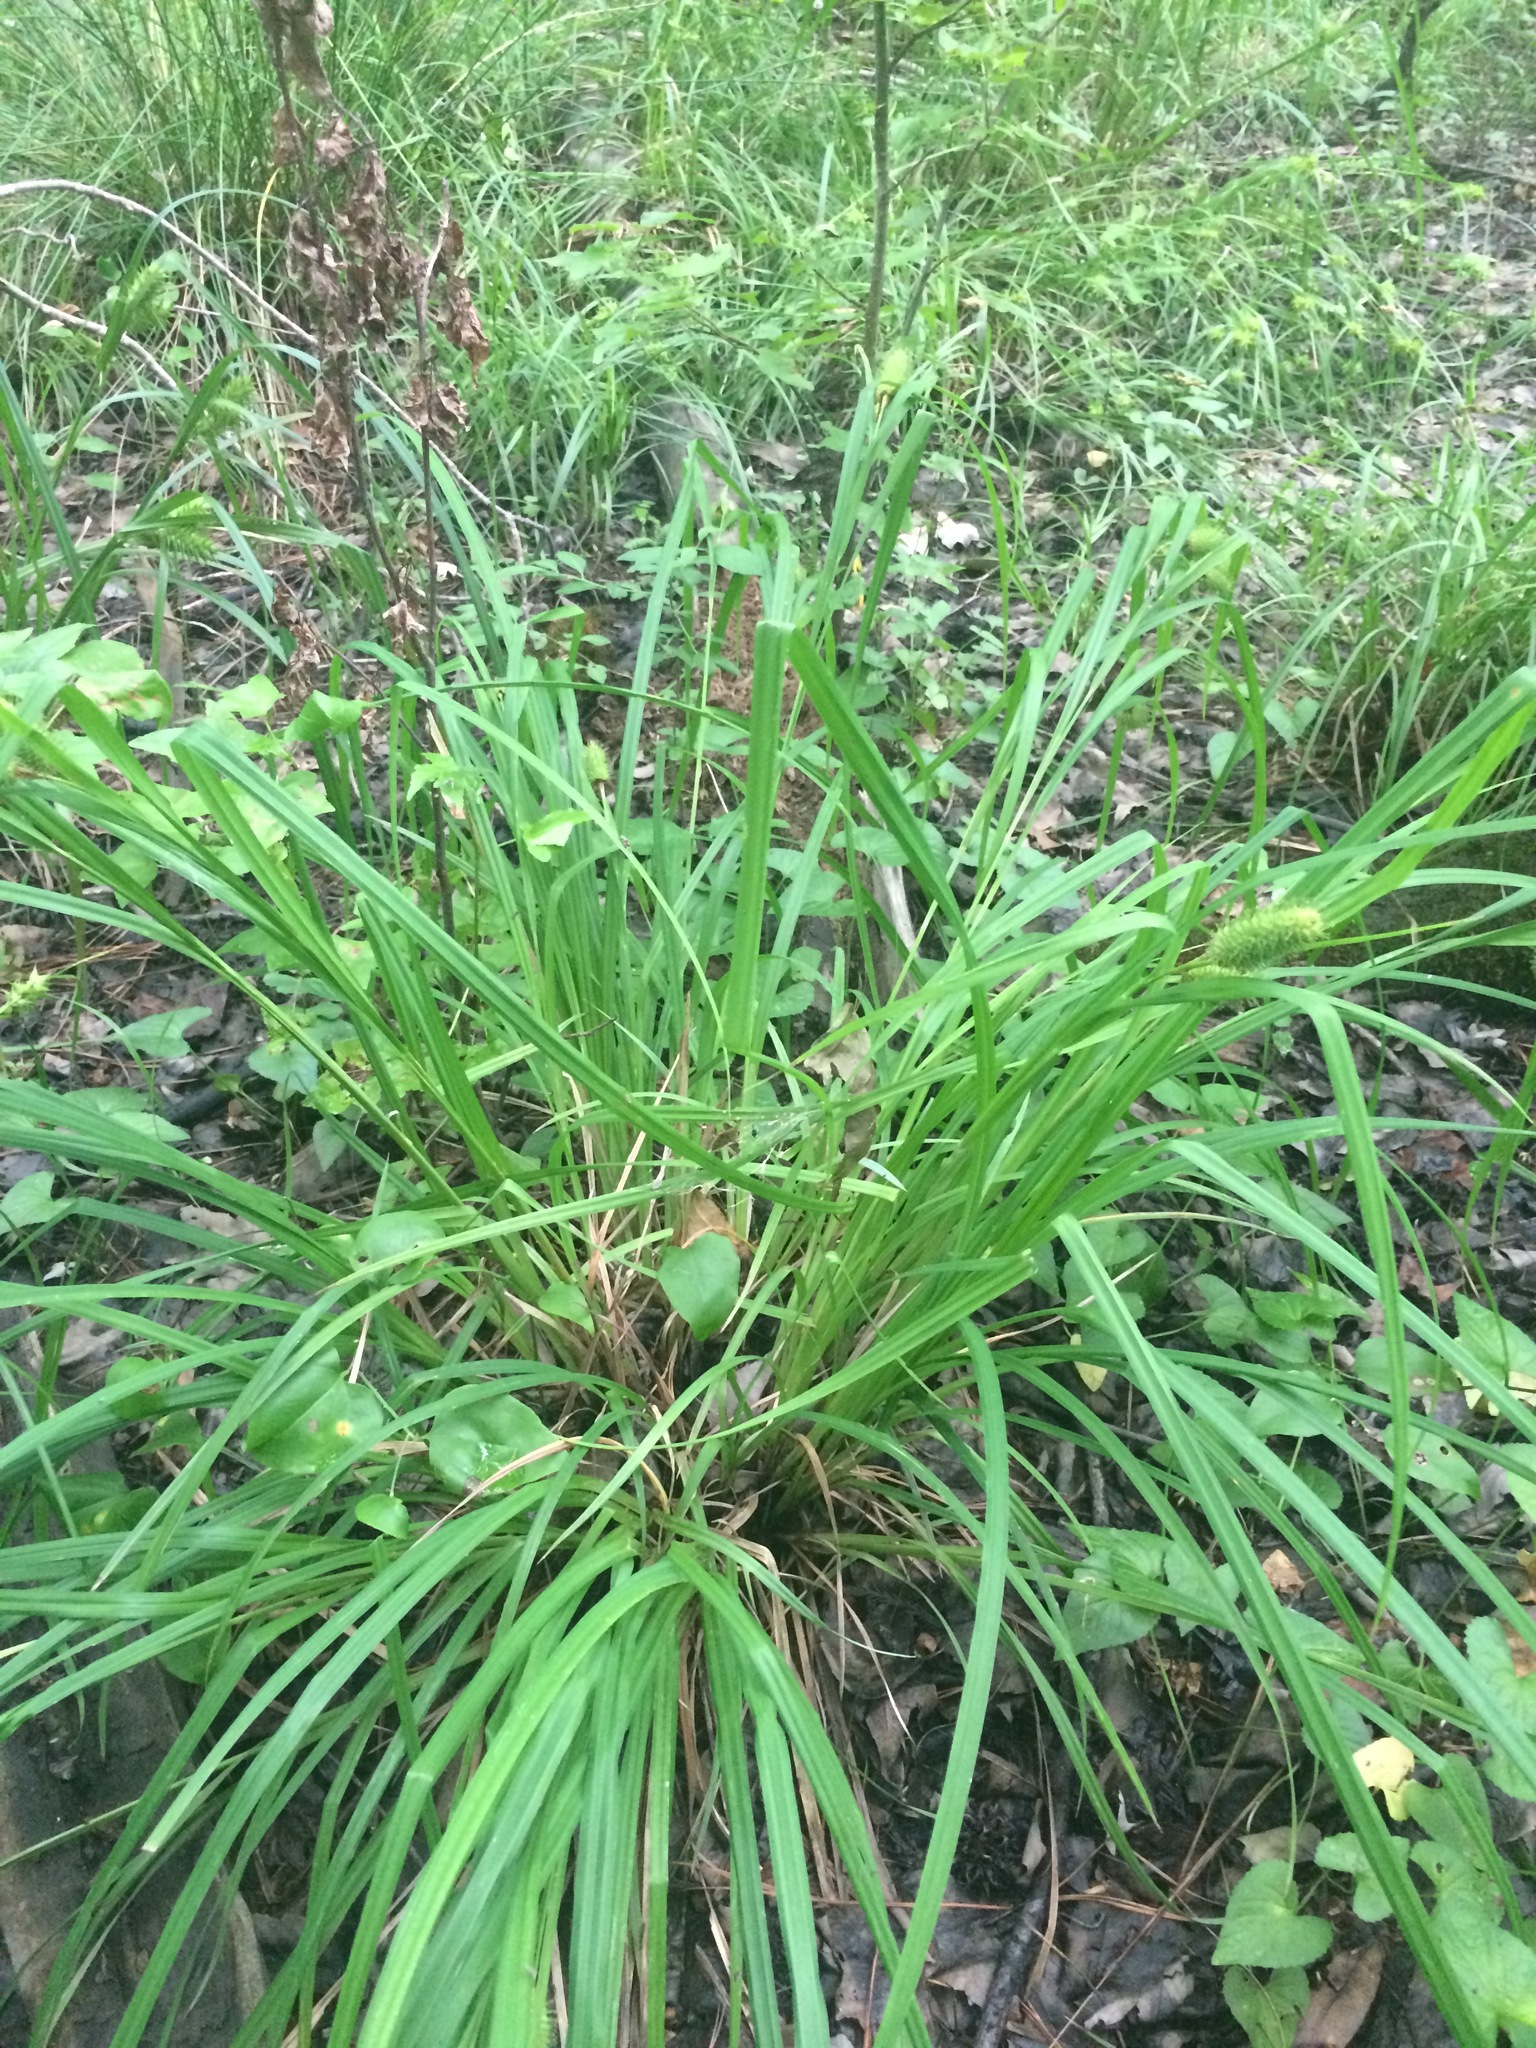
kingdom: Plantae
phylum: Tracheophyta
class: Liliopsida
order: Poales
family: Cyperaceae
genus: Carex
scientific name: Carex typhina
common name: Cattail sedge
